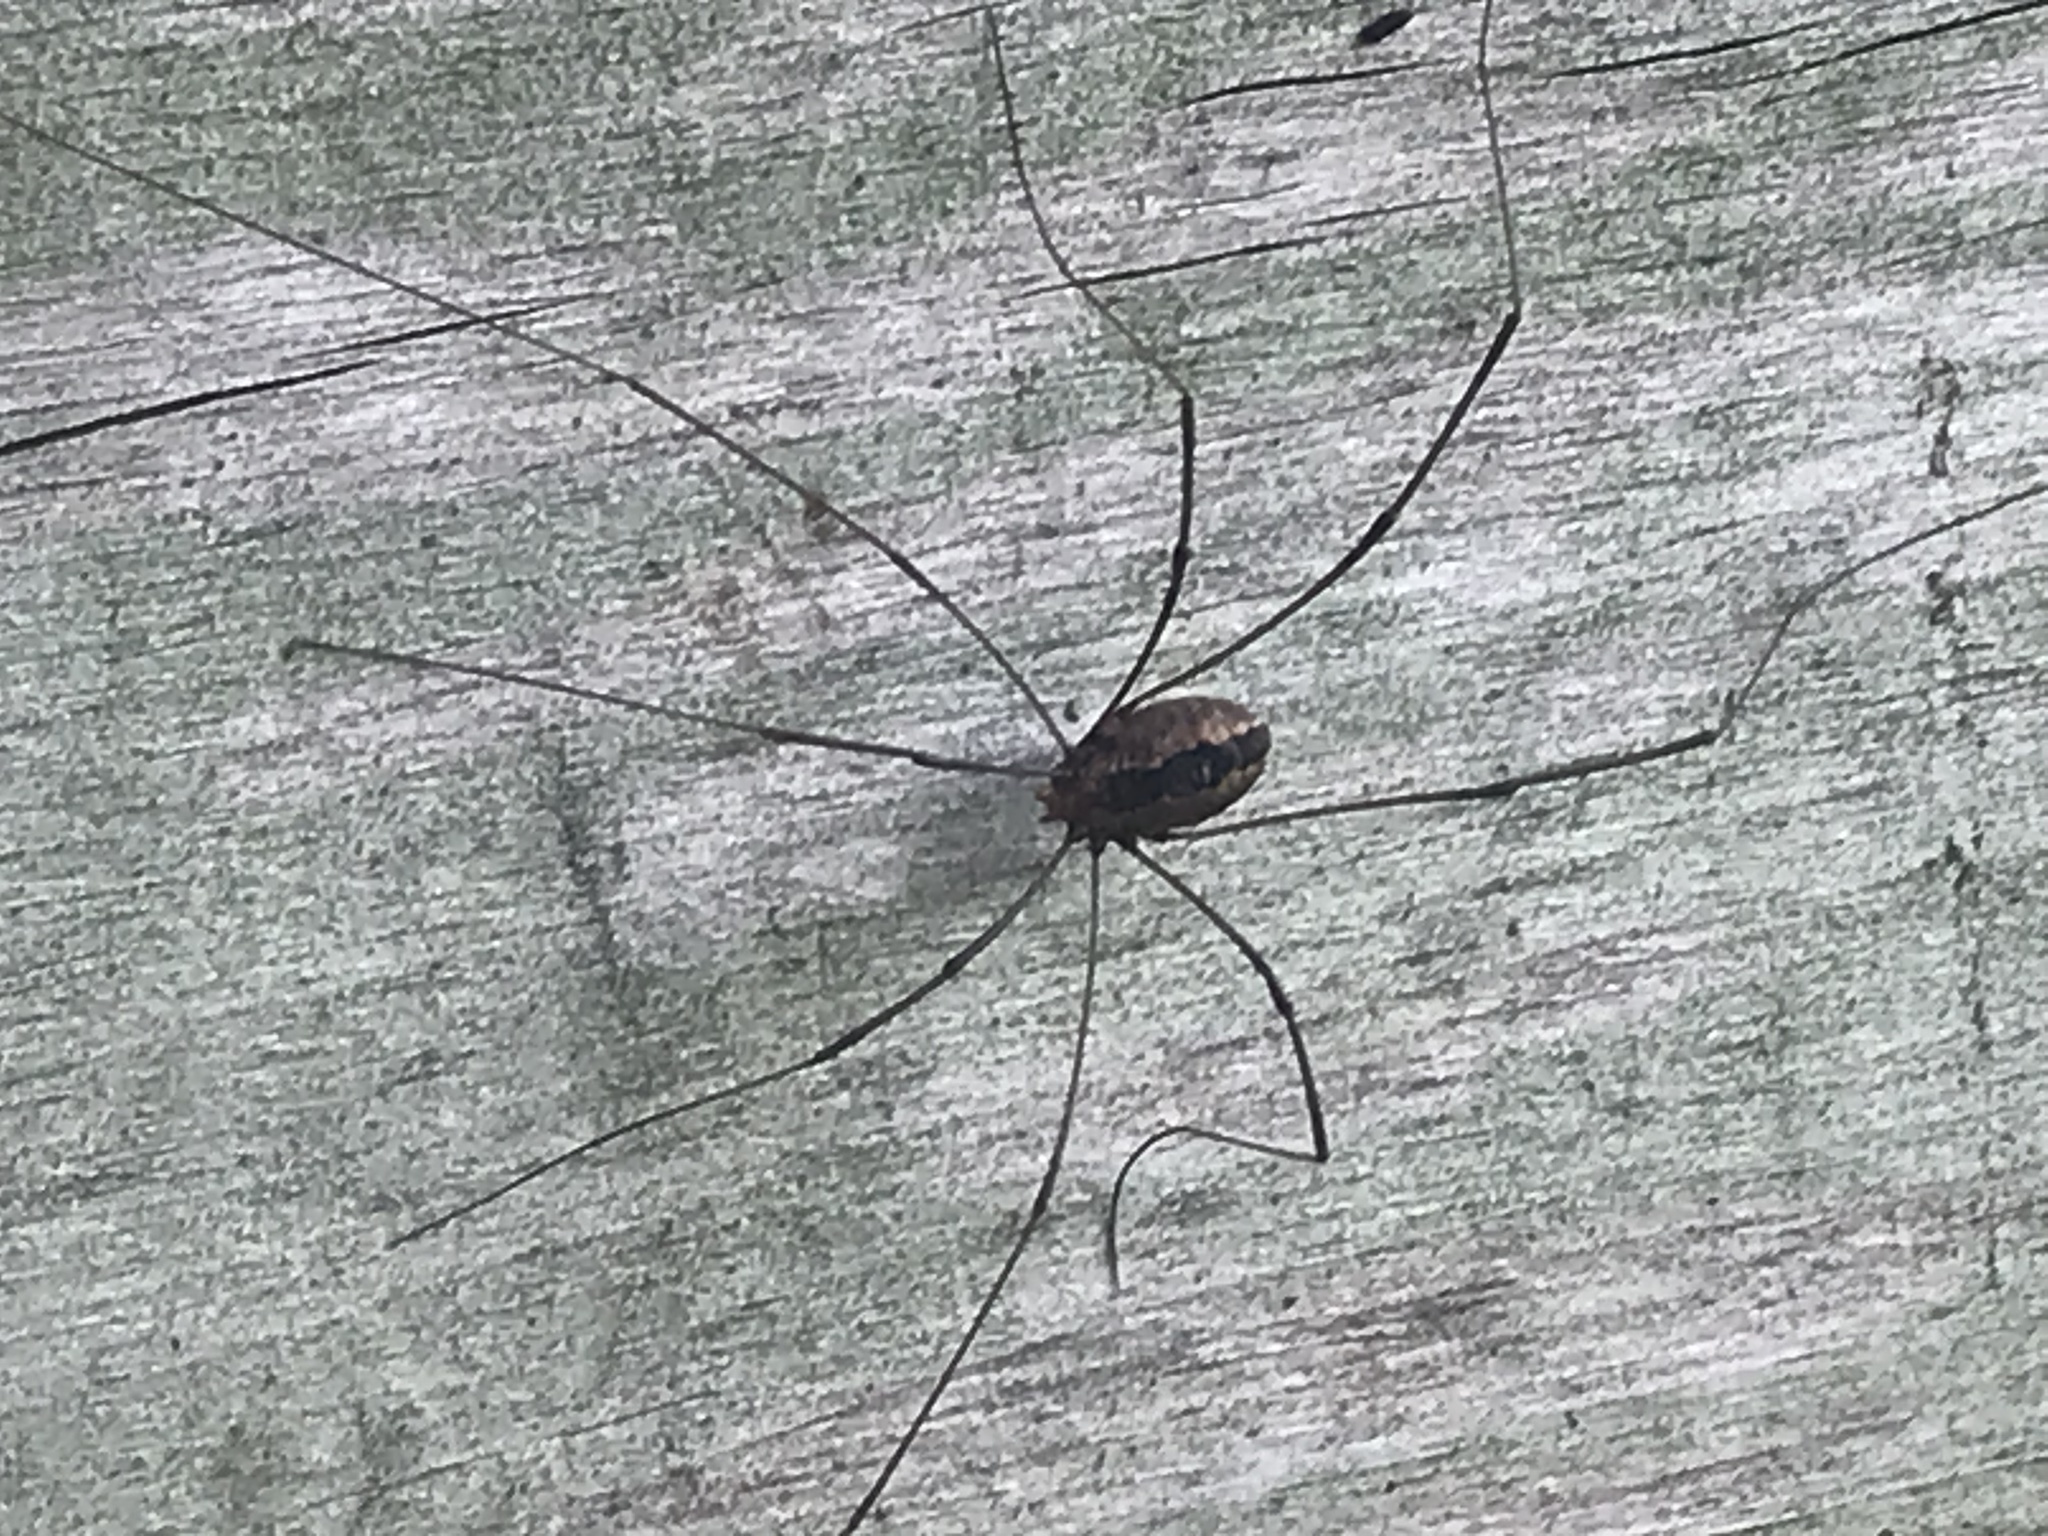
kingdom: Animalia
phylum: Arthropoda
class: Arachnida
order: Opiliones
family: Sclerosomatidae
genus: Leiobunum
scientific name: Leiobunum vittatum
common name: Eastern harvestman
